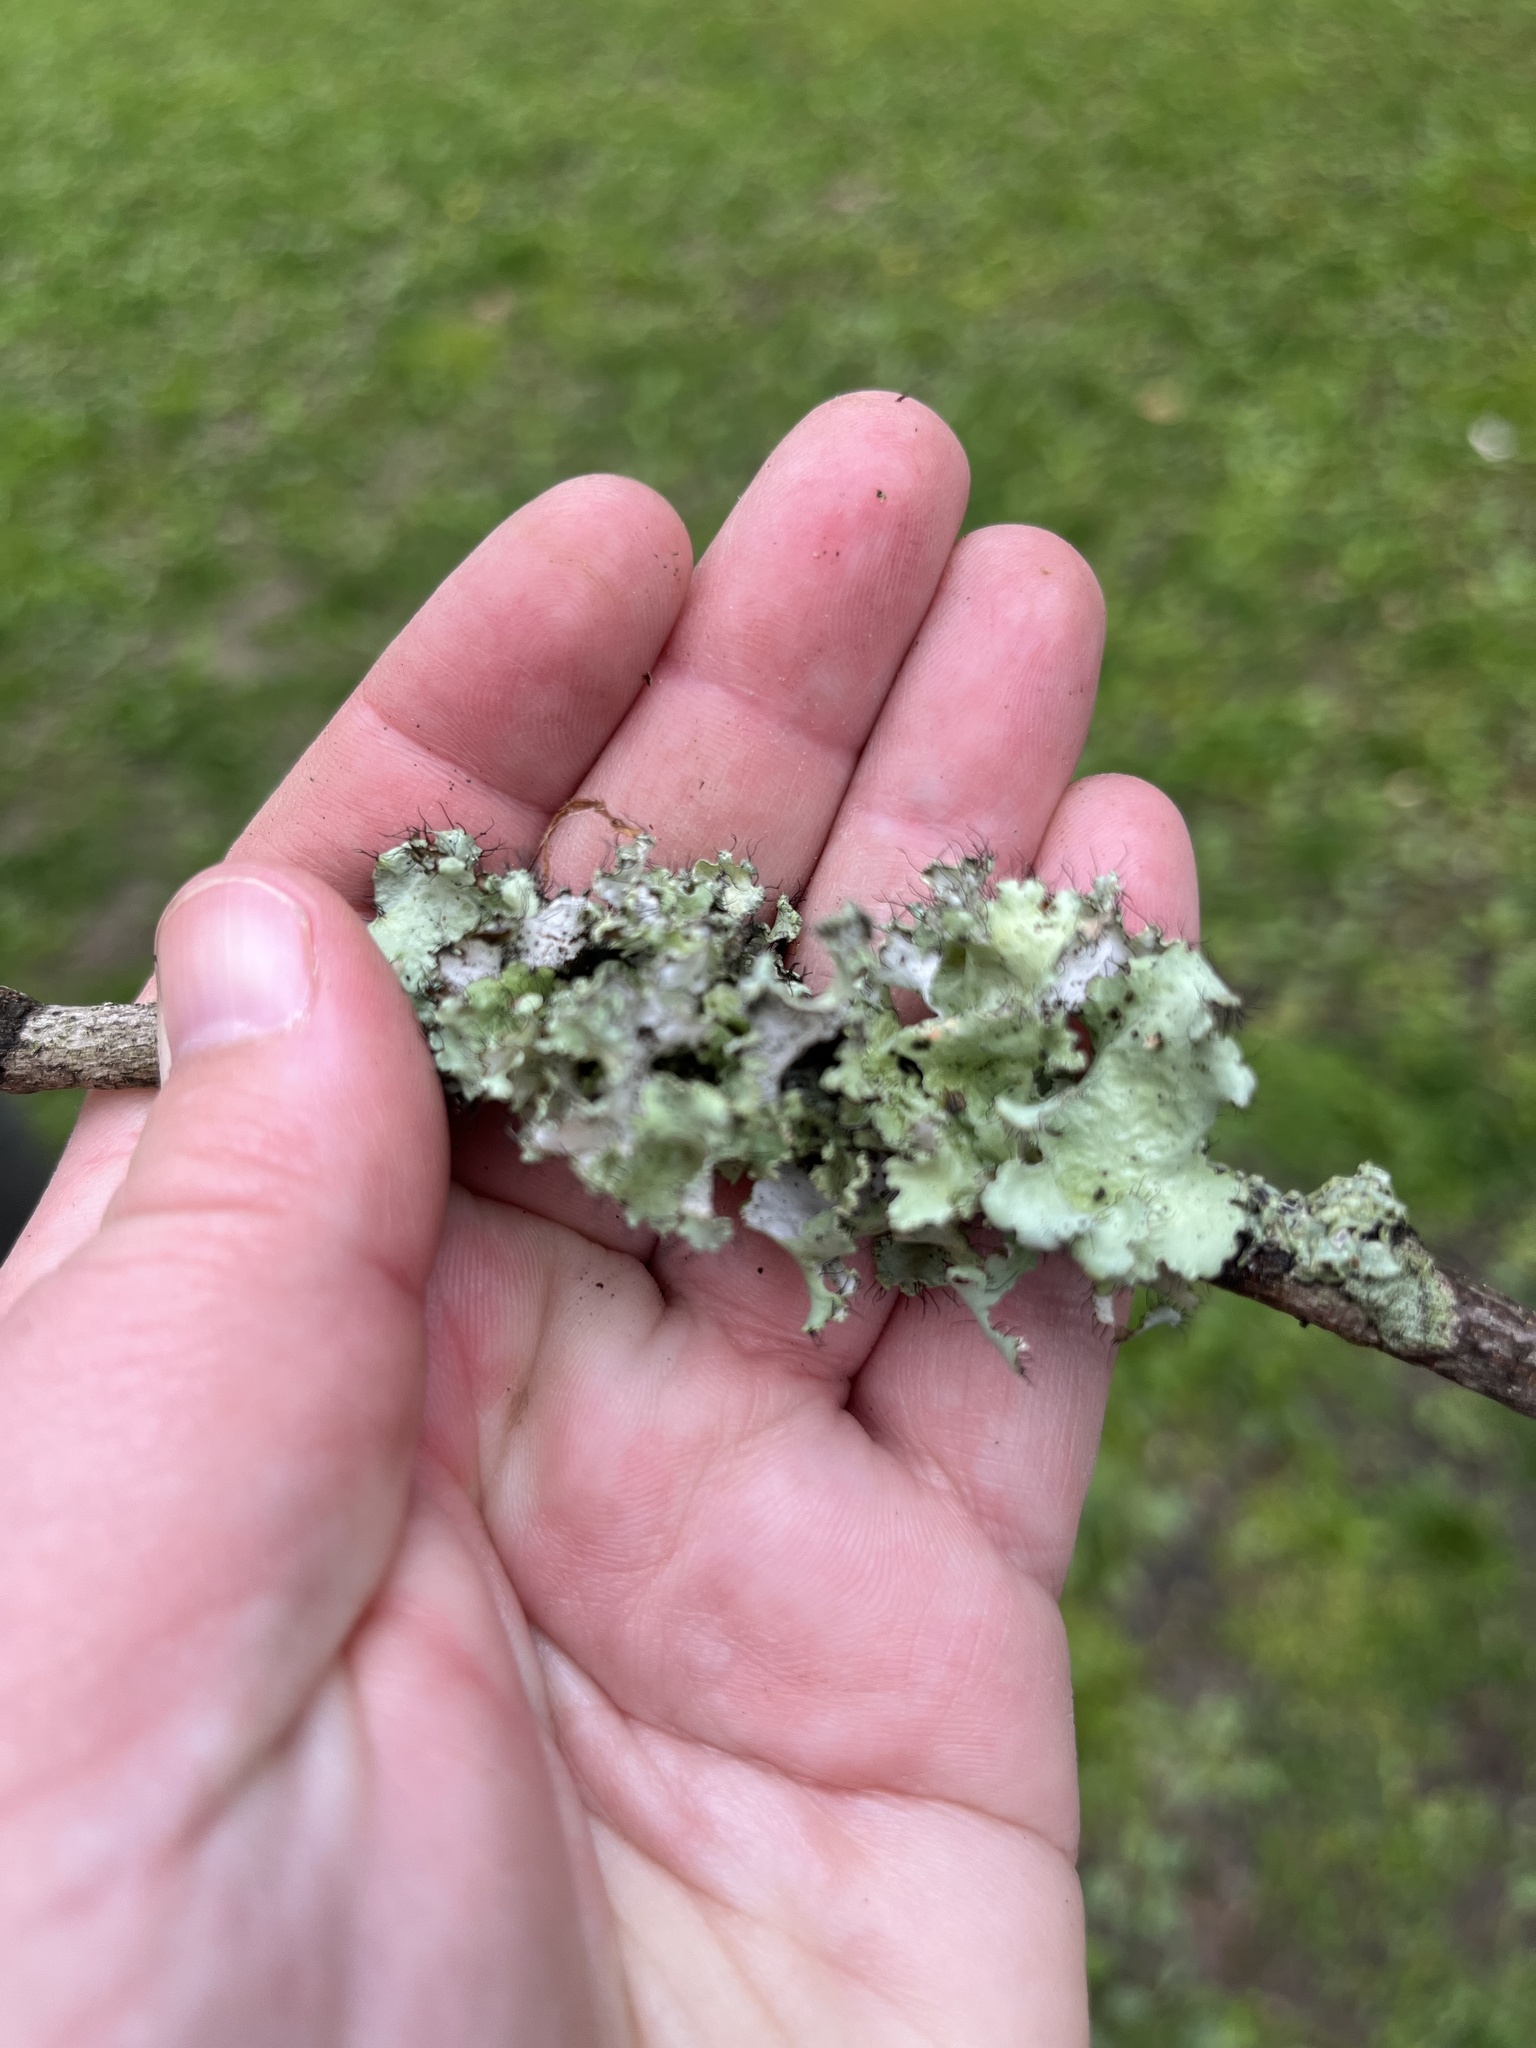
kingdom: Fungi
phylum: Ascomycota
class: Lecanoromycetes
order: Lecanorales
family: Parmeliaceae
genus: Parmotrema
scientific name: Parmotrema hypotropum
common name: Powdered ruffle lichen
